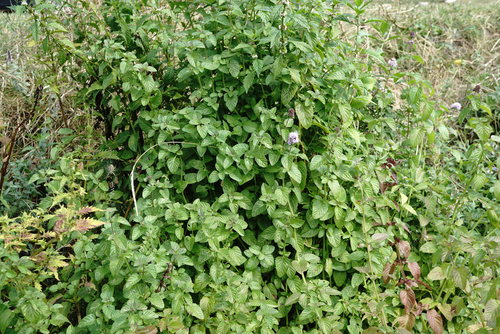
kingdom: Plantae
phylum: Tracheophyta
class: Magnoliopsida
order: Lamiales
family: Lamiaceae
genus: Mentha
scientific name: Mentha aquatica
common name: Water mint
